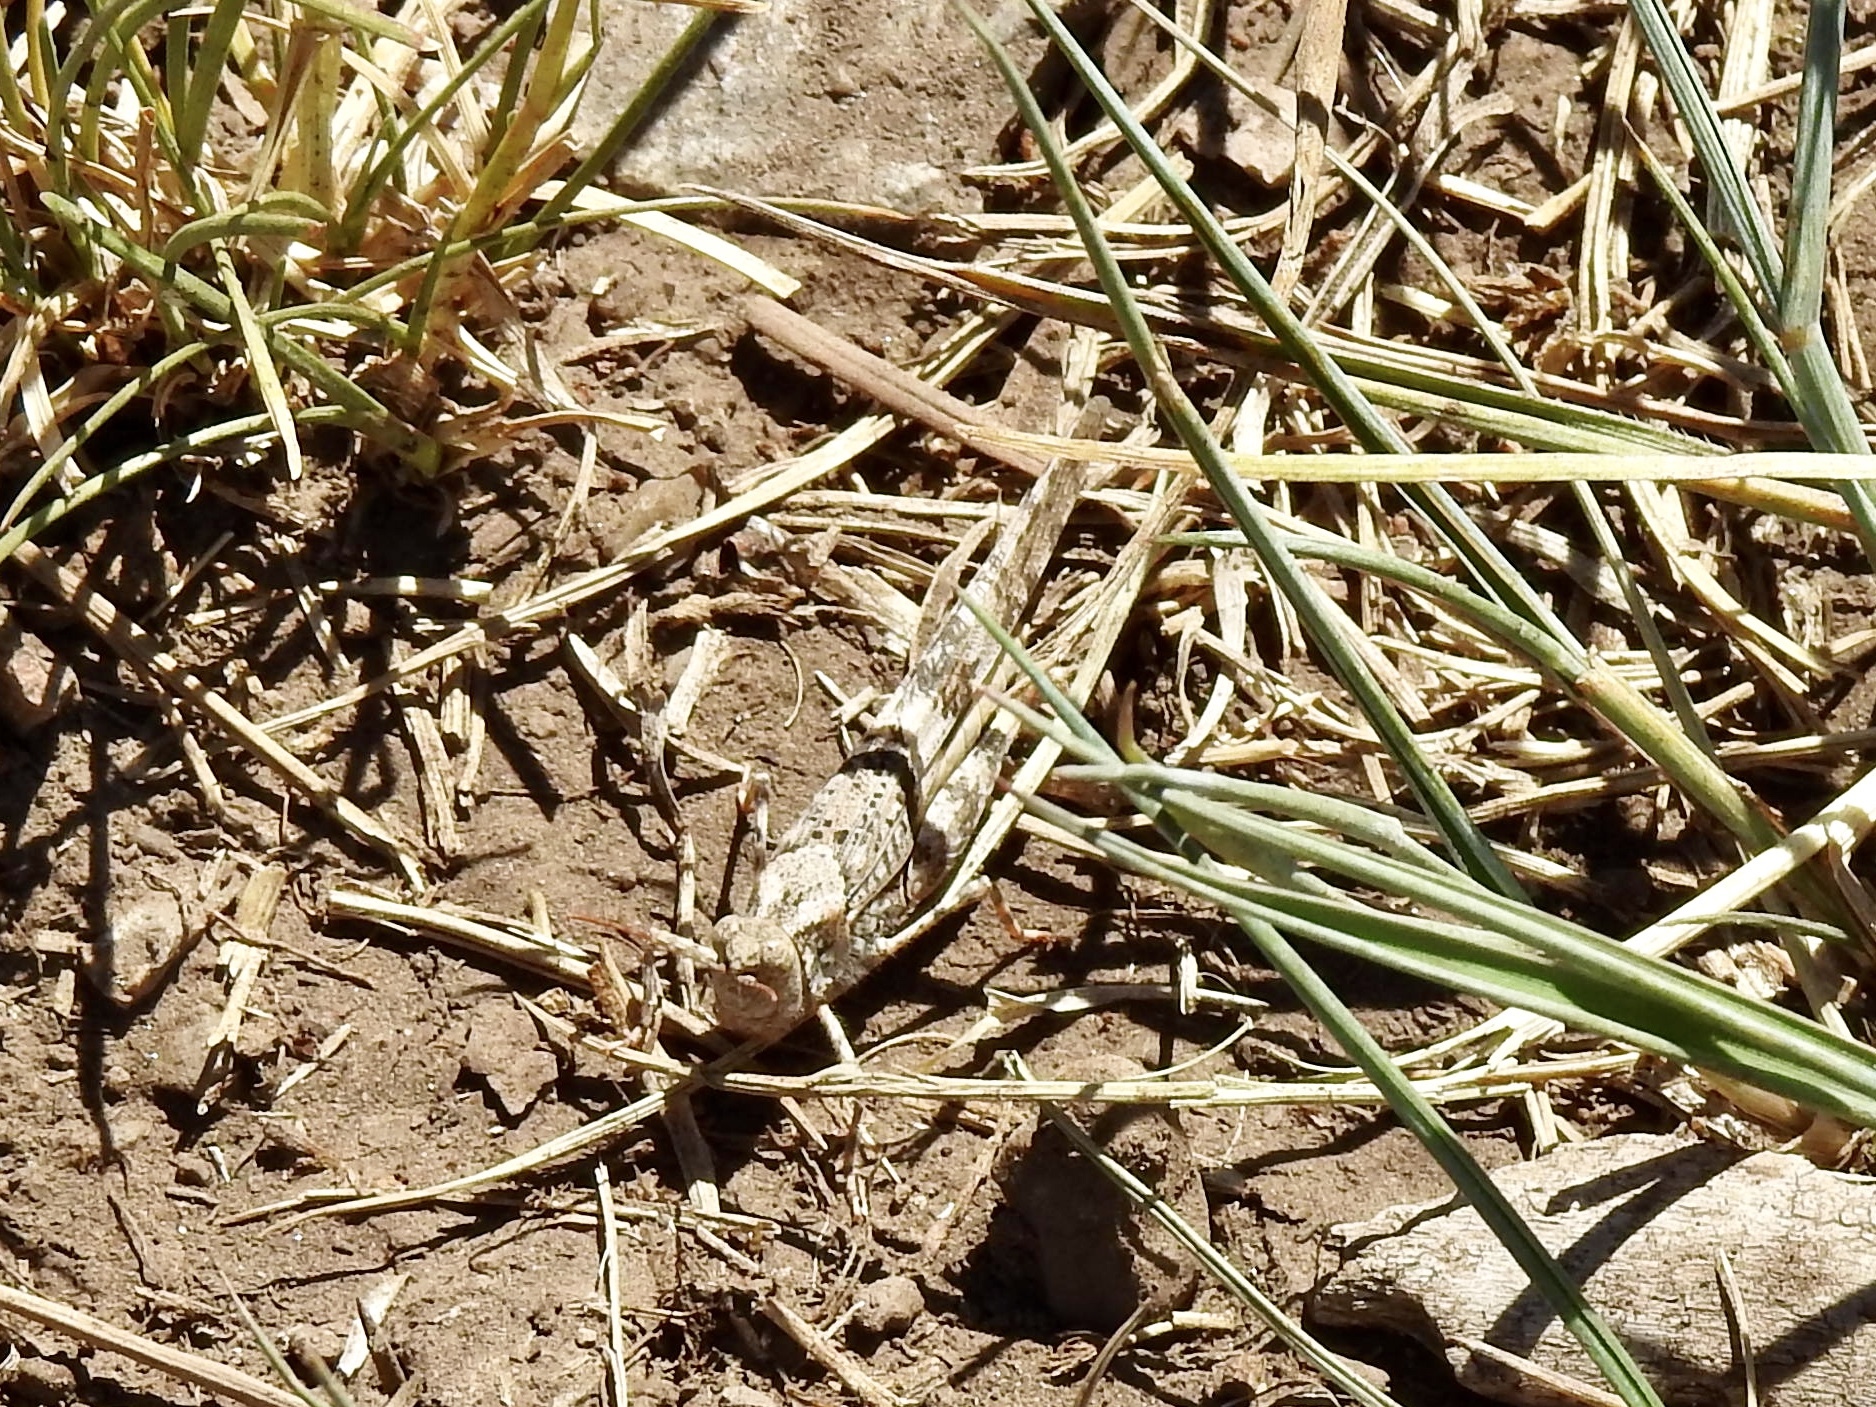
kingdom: Animalia
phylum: Arthropoda
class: Insecta
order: Orthoptera
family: Acrididae
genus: Trimerotropis
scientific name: Trimerotropis pallidipennis
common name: Pallid-winged grasshopper
